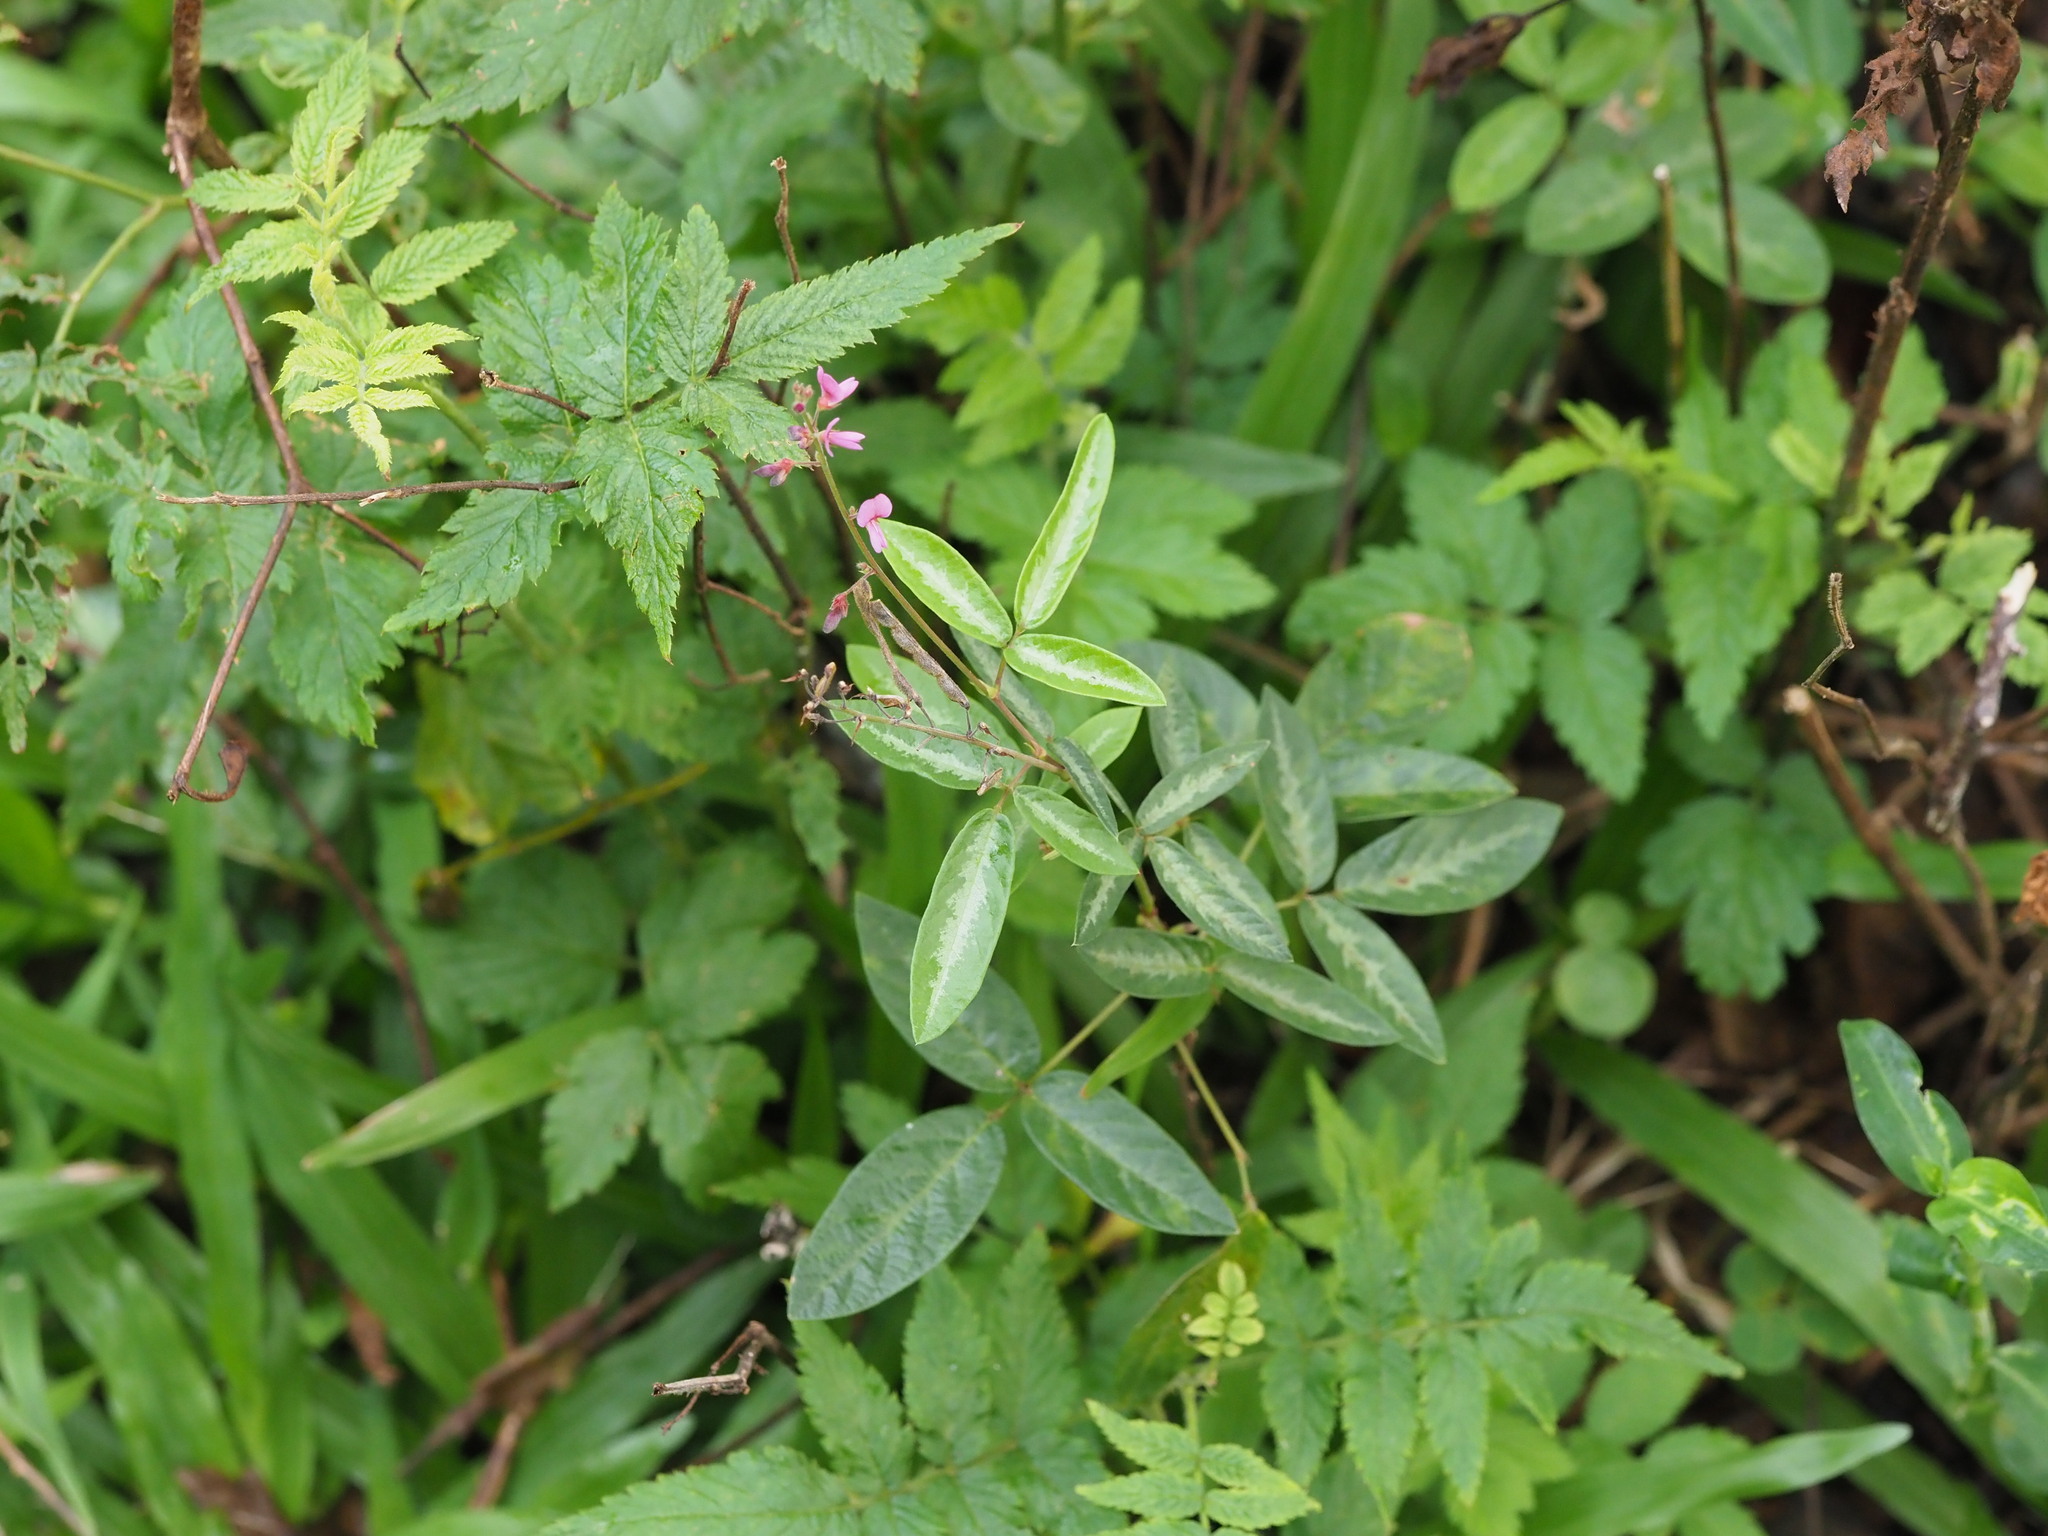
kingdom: Plantae
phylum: Tracheophyta
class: Magnoliopsida
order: Fabales
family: Fabaceae
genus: Desmodium
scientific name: Desmodium incanum
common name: Tickclover
